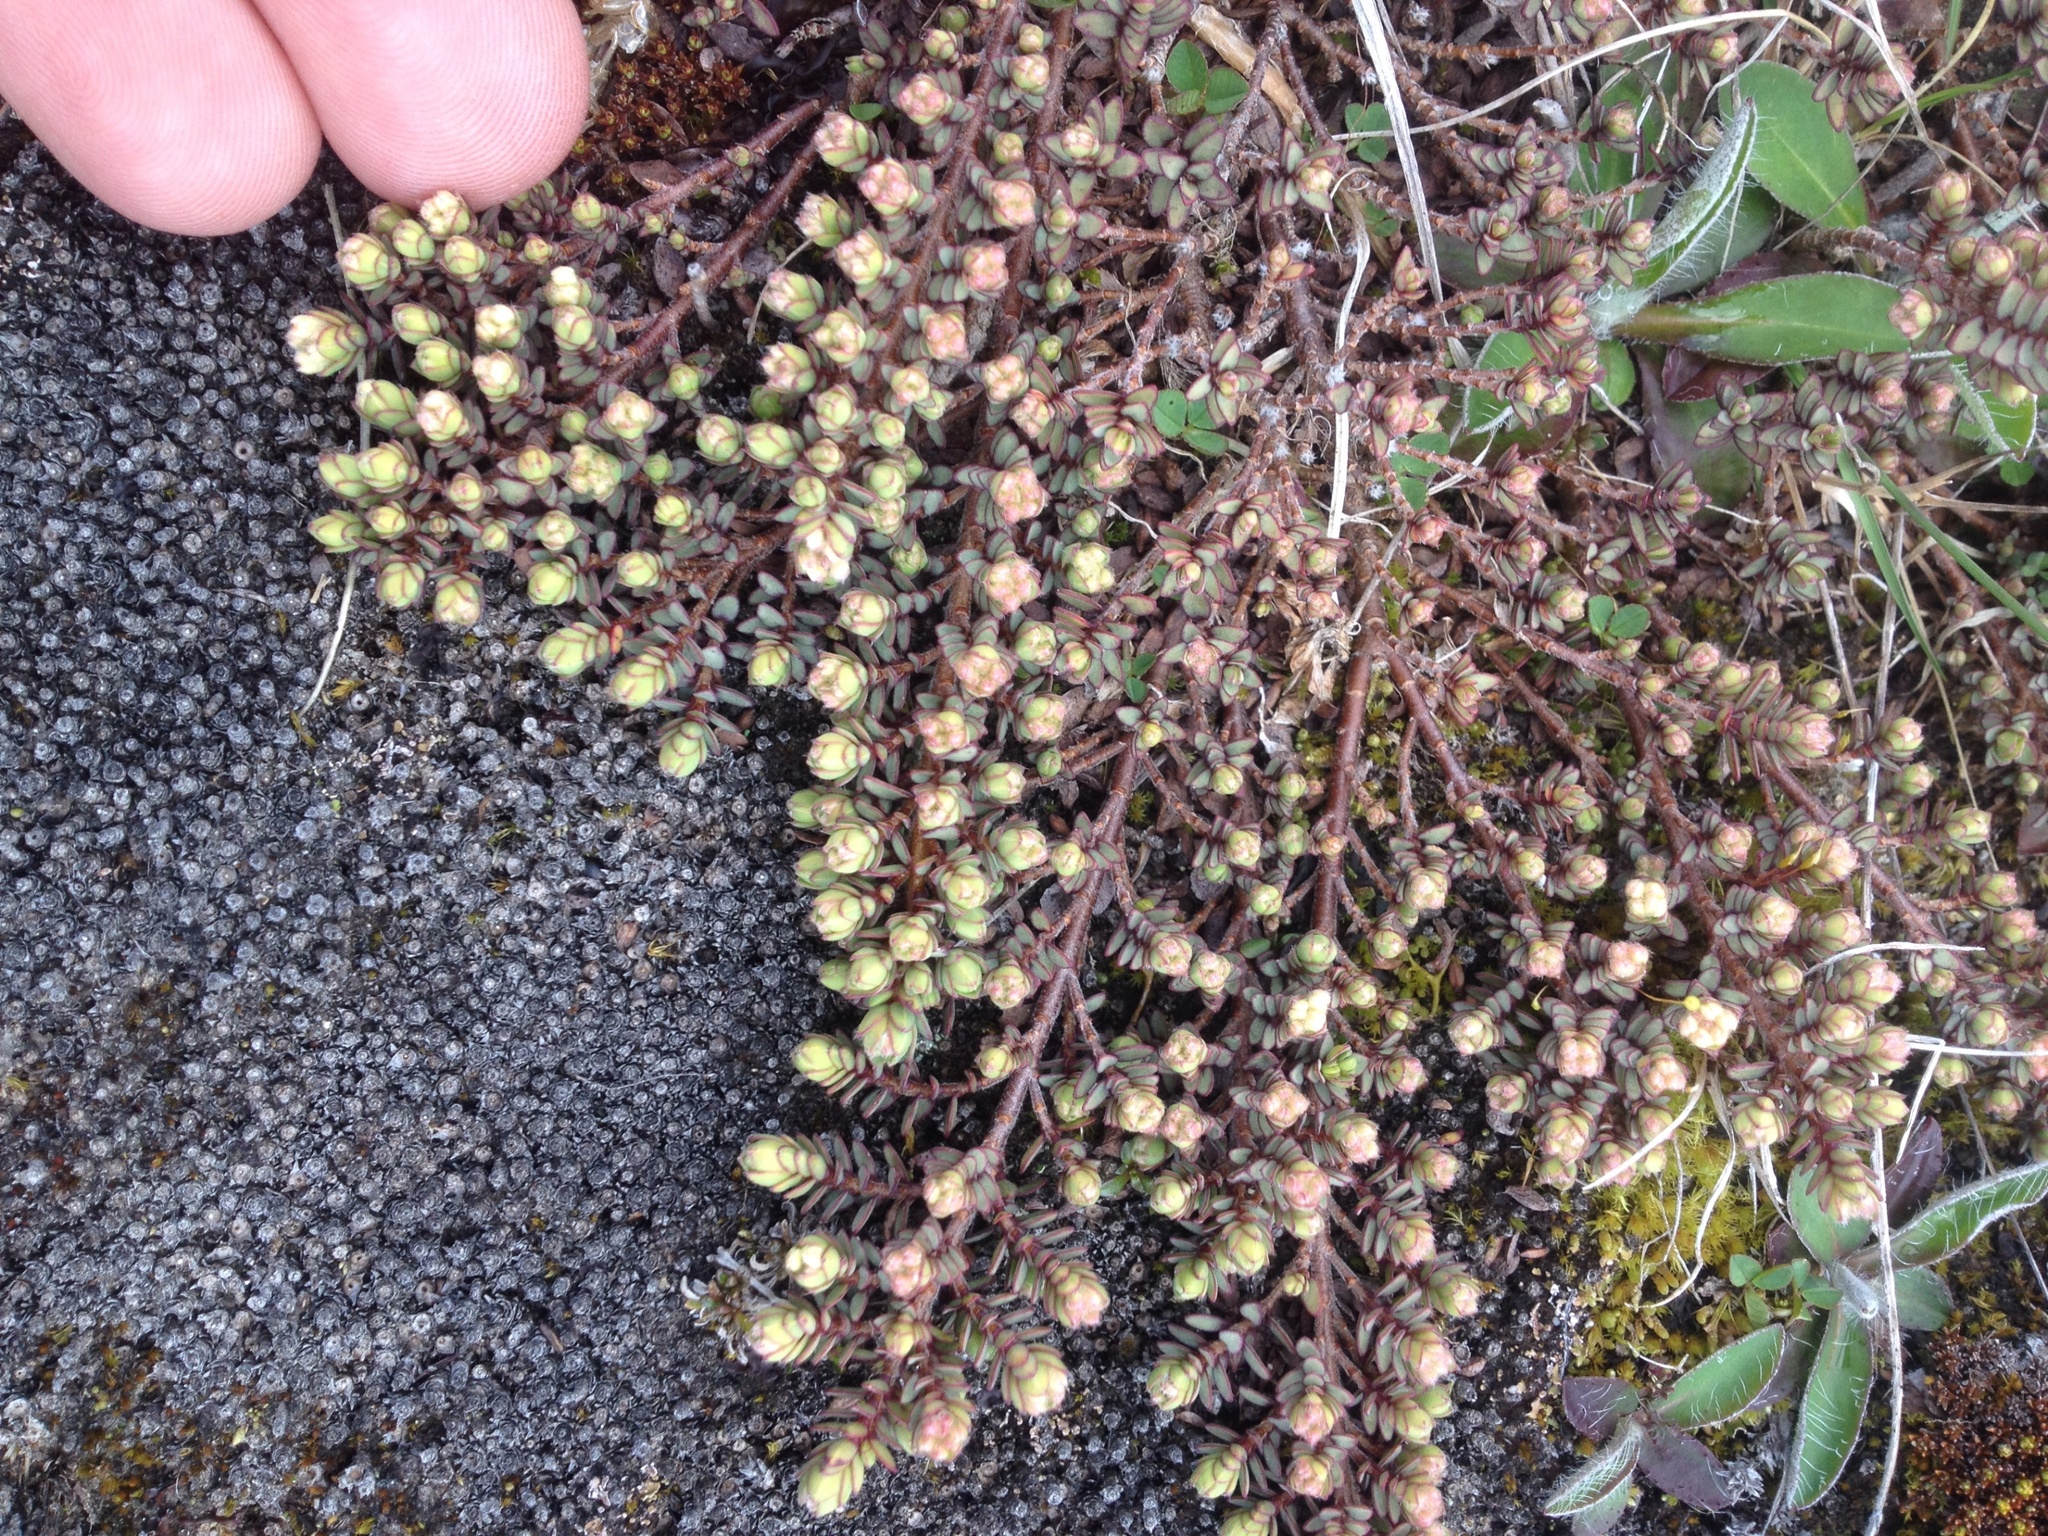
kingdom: Plantae
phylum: Tracheophyta
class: Magnoliopsida
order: Malvales
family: Thymelaeaceae
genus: Pimelea
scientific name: Pimelea prostrata
